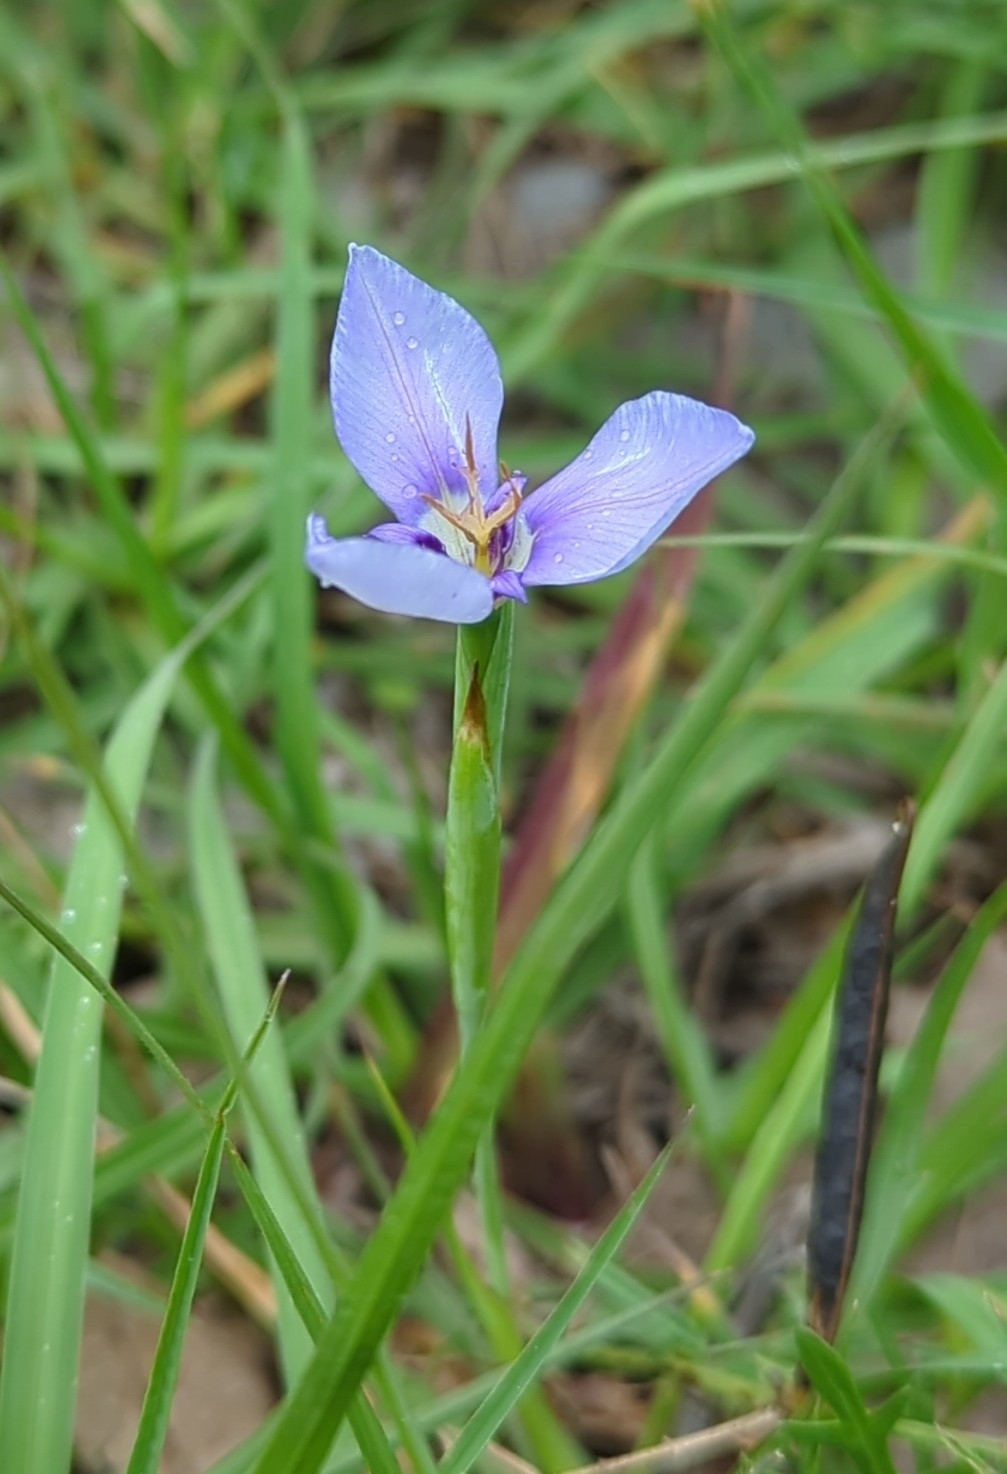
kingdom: Plantae
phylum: Tracheophyta
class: Liliopsida
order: Asparagales
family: Iridaceae
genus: Herbertia
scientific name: Herbertia lahue
